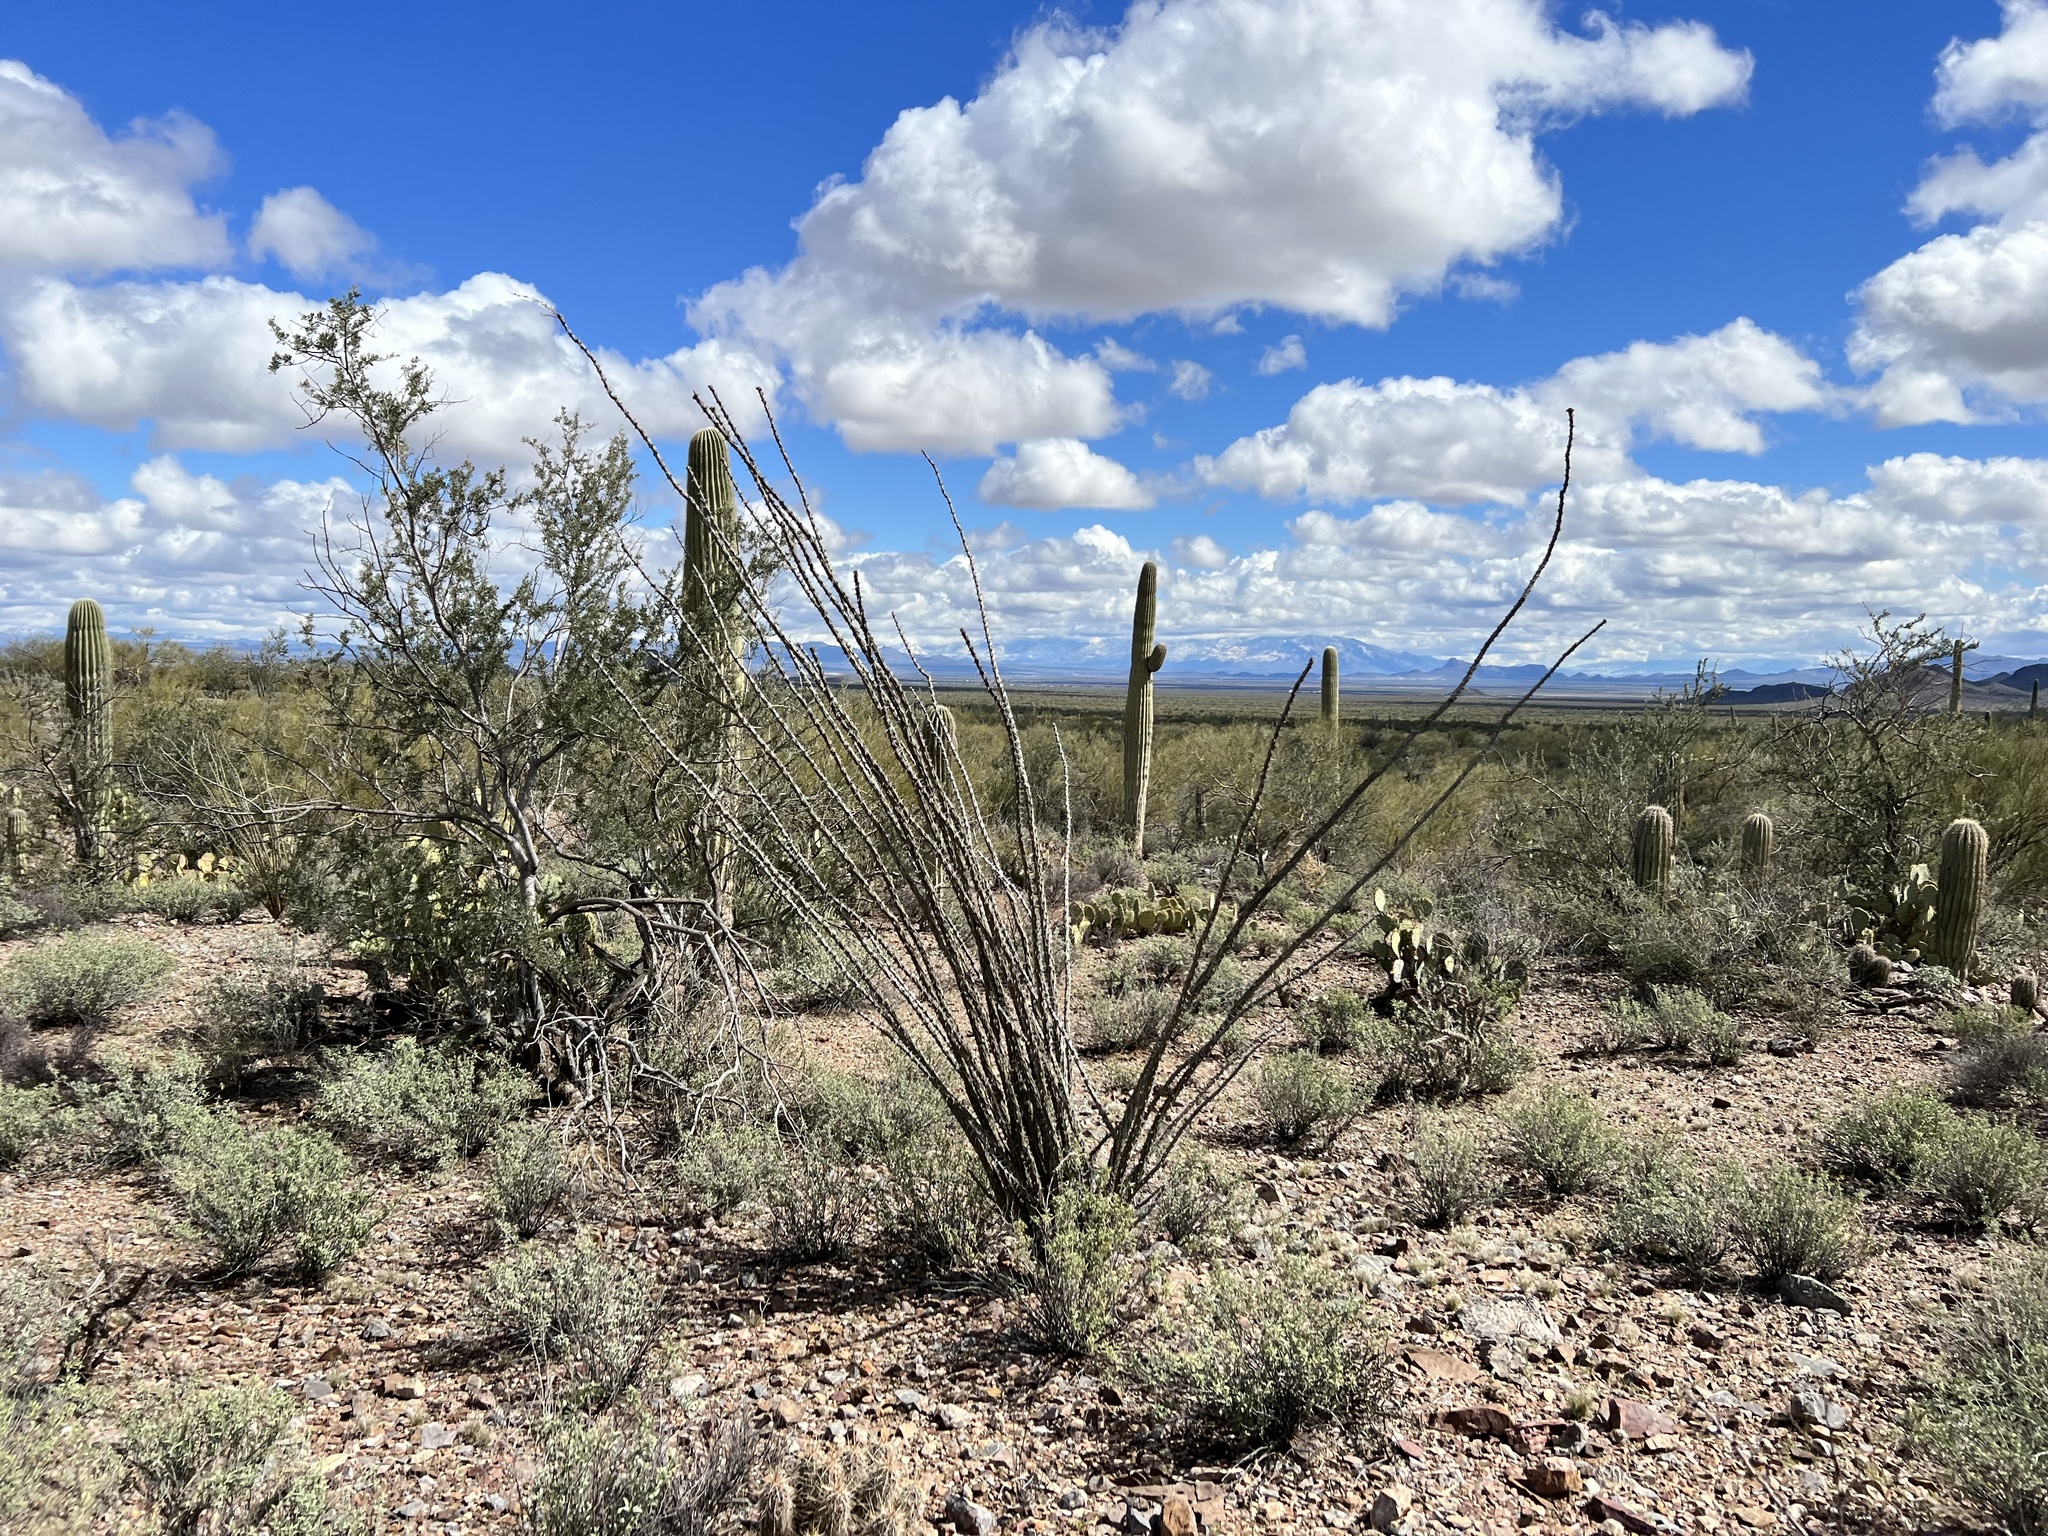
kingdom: Plantae
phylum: Tracheophyta
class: Magnoliopsida
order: Ericales
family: Fouquieriaceae
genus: Fouquieria
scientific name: Fouquieria splendens
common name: Vine-cactus
